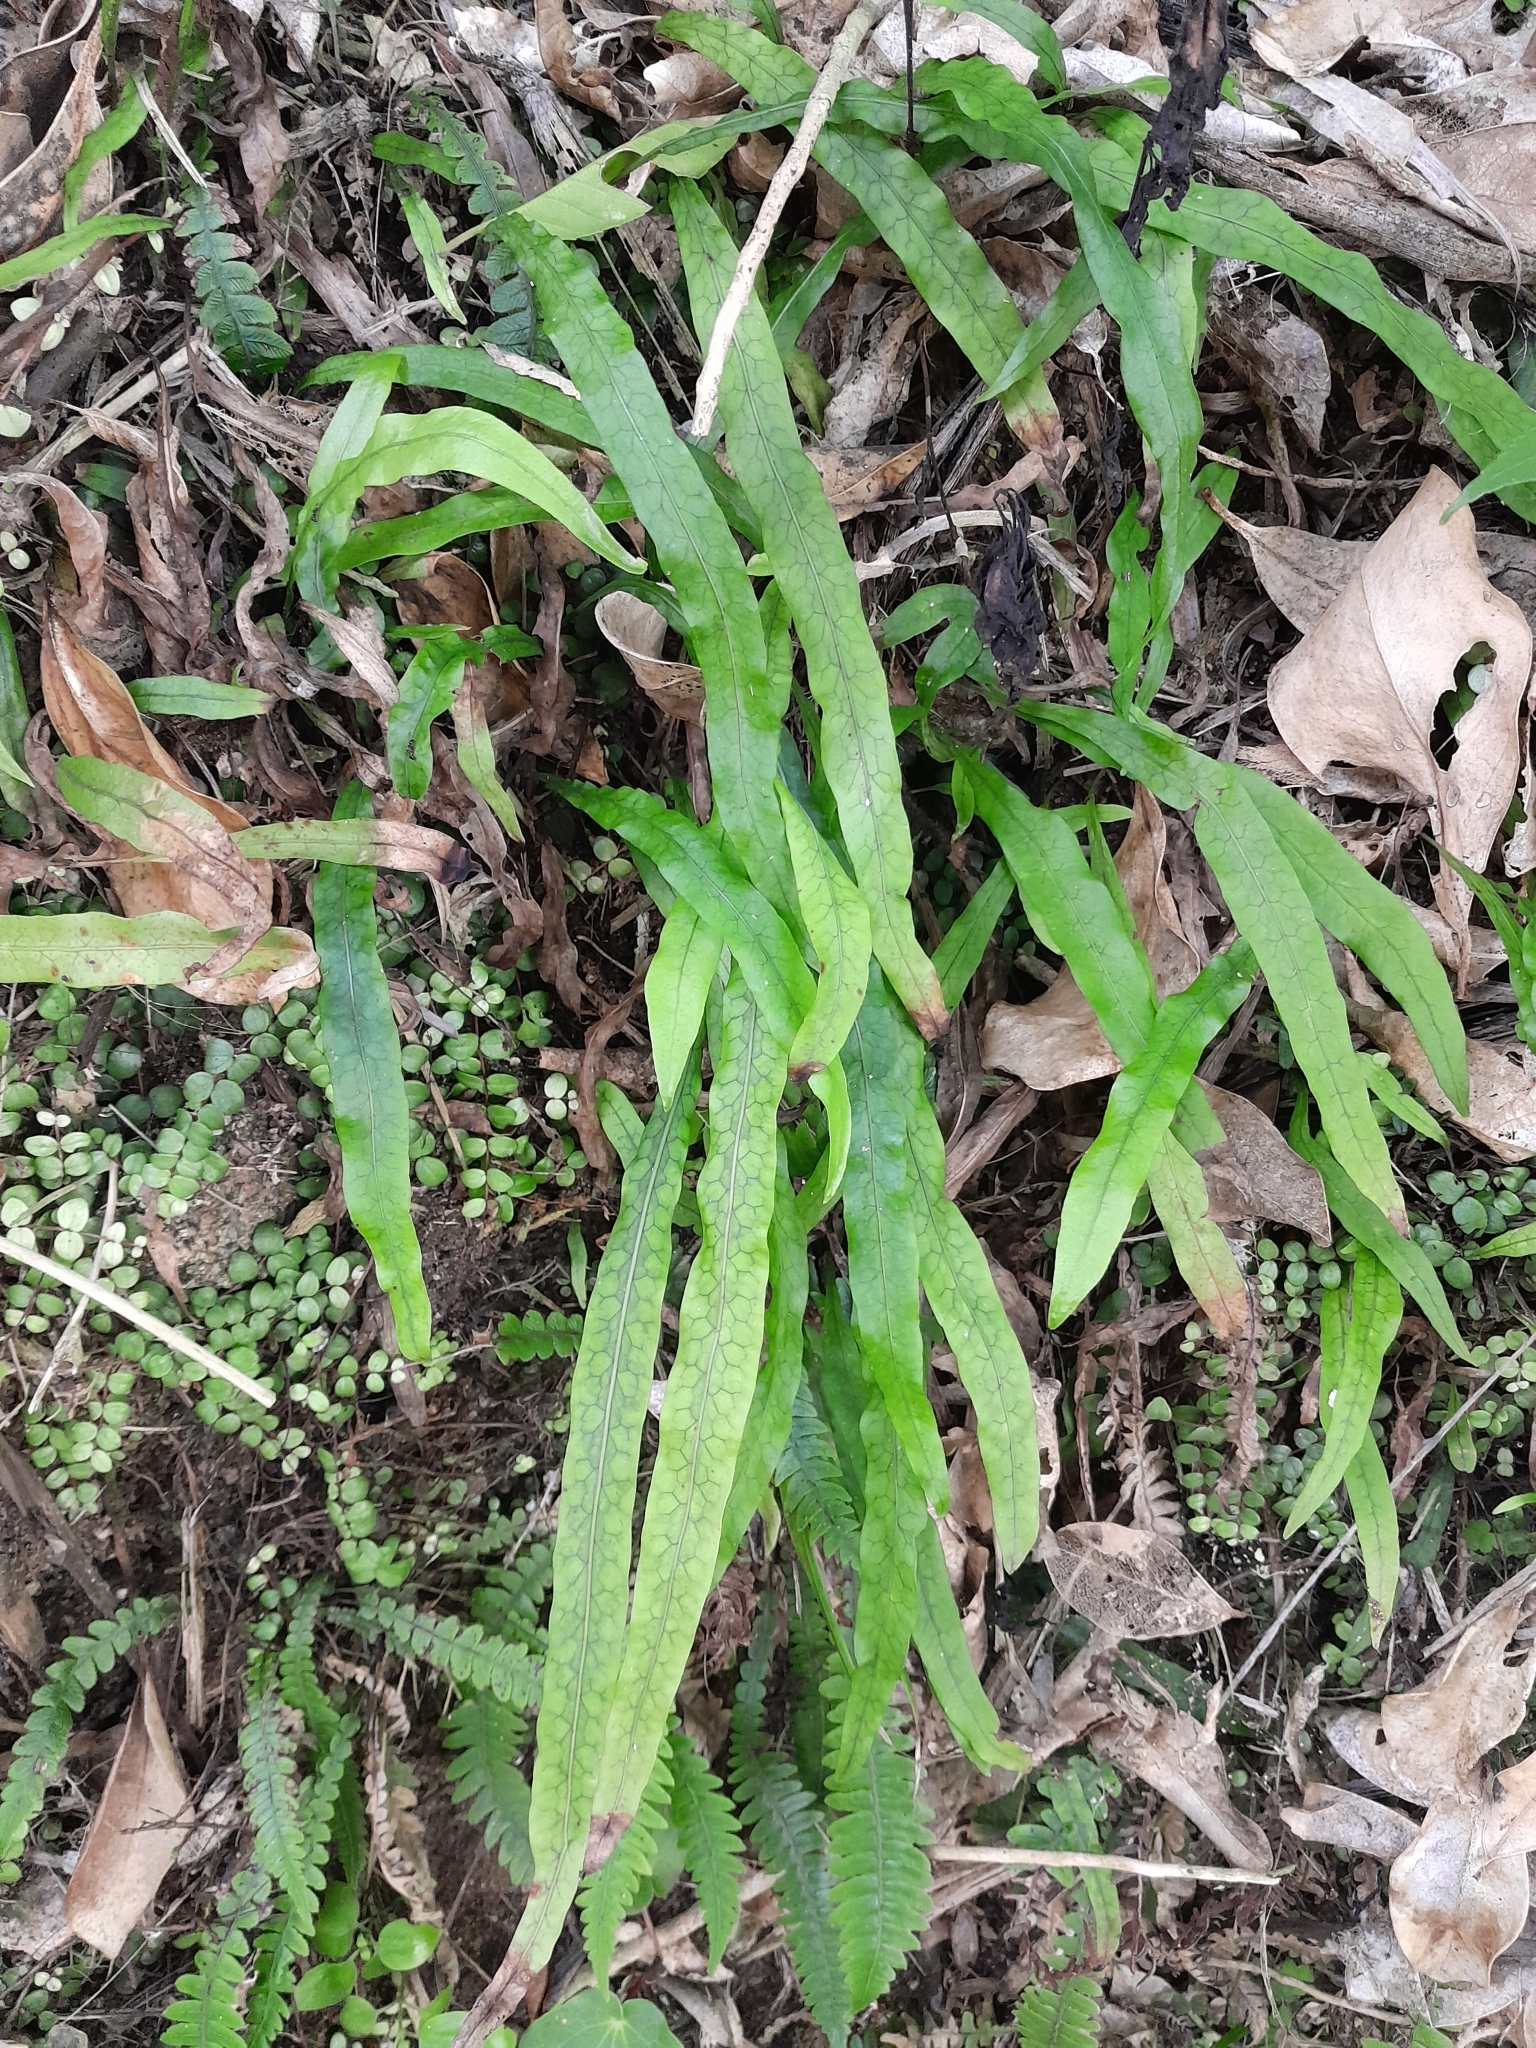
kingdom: Plantae
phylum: Tracheophyta
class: Polypodiopsida
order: Polypodiales
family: Polypodiaceae
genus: Lecanopteris
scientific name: Lecanopteris scandens
